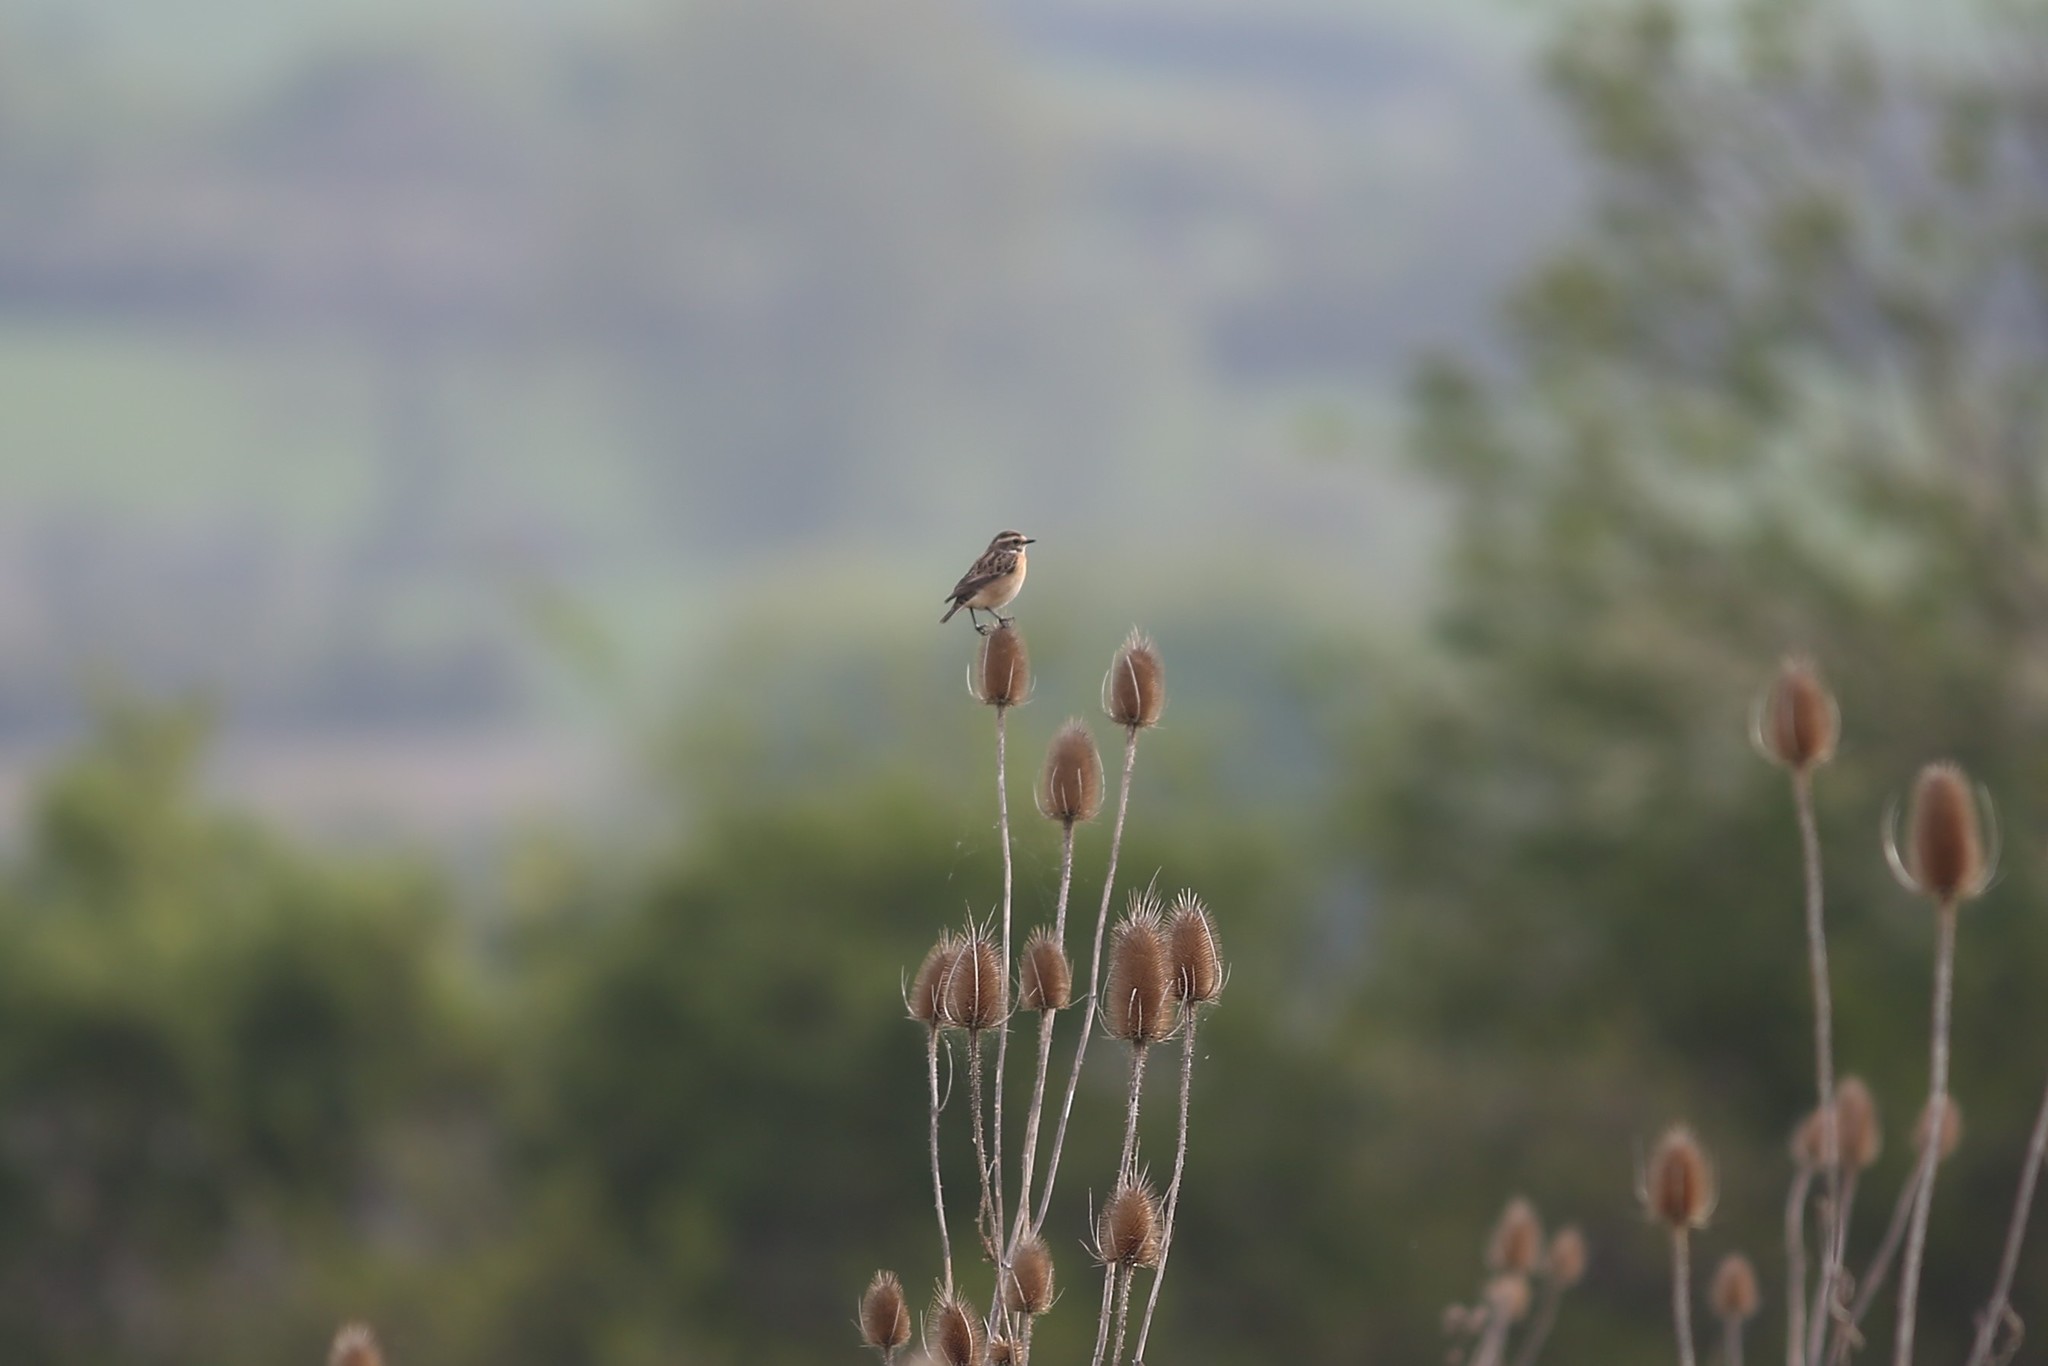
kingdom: Animalia
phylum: Chordata
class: Aves
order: Passeriformes
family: Muscicapidae
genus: Saxicola
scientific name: Saxicola rubetra
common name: Whinchat
